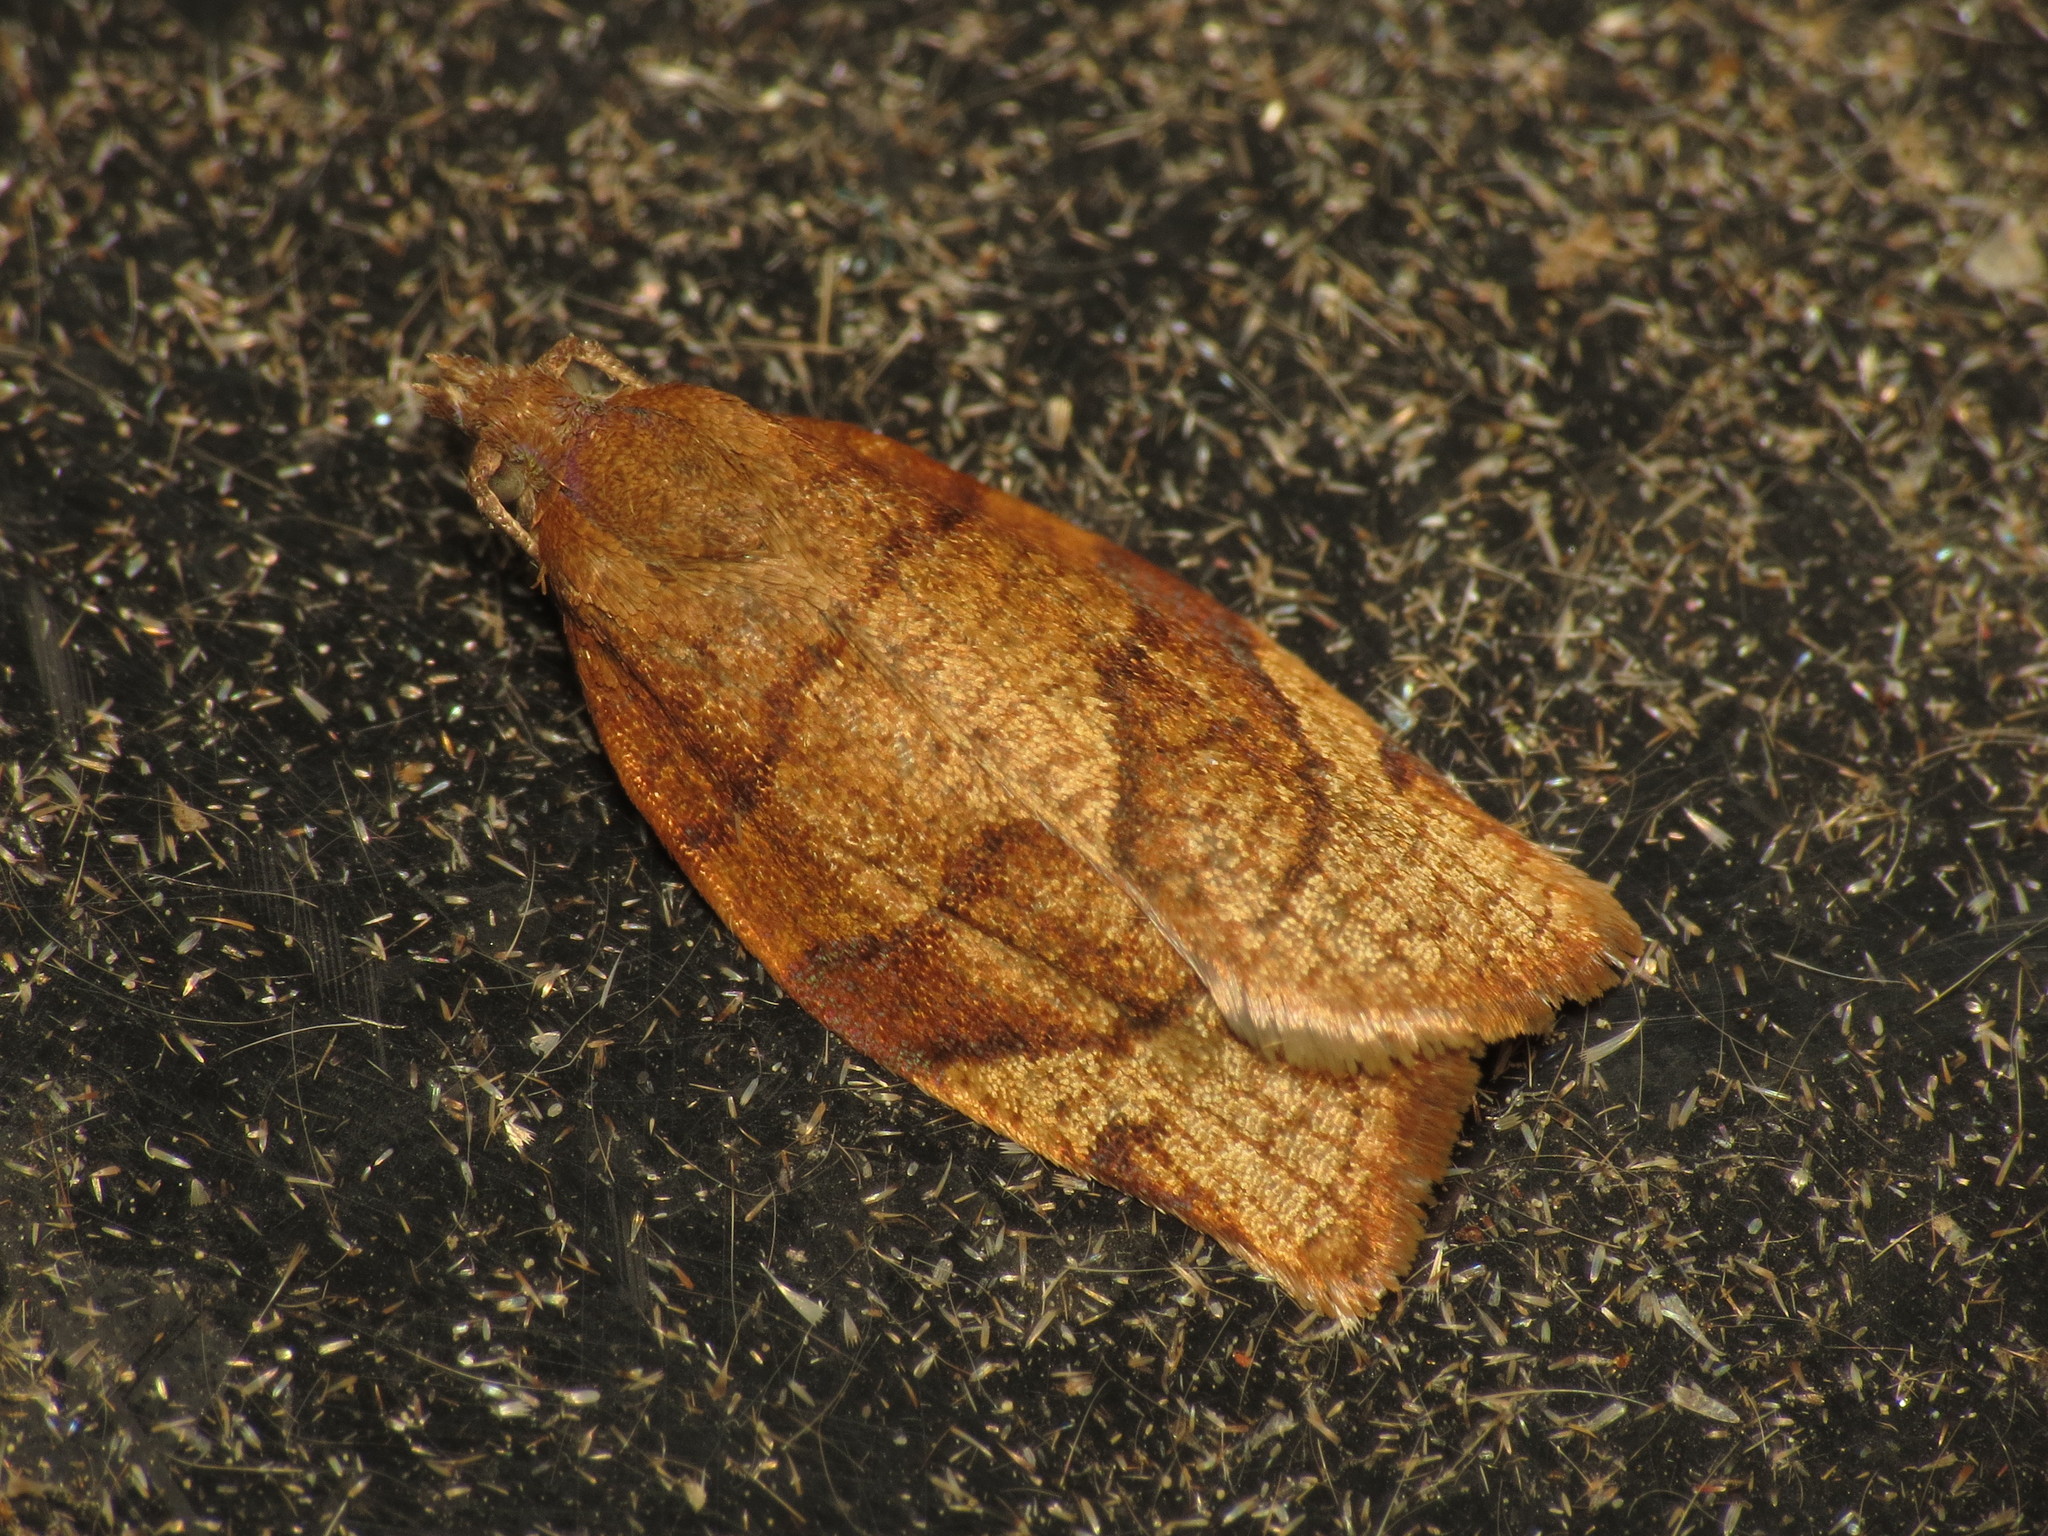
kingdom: Animalia
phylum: Arthropoda
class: Insecta
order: Lepidoptera
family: Tortricidae
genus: Pandemis
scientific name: Pandemis cerasana
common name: Barred fruit-tree tortrix
